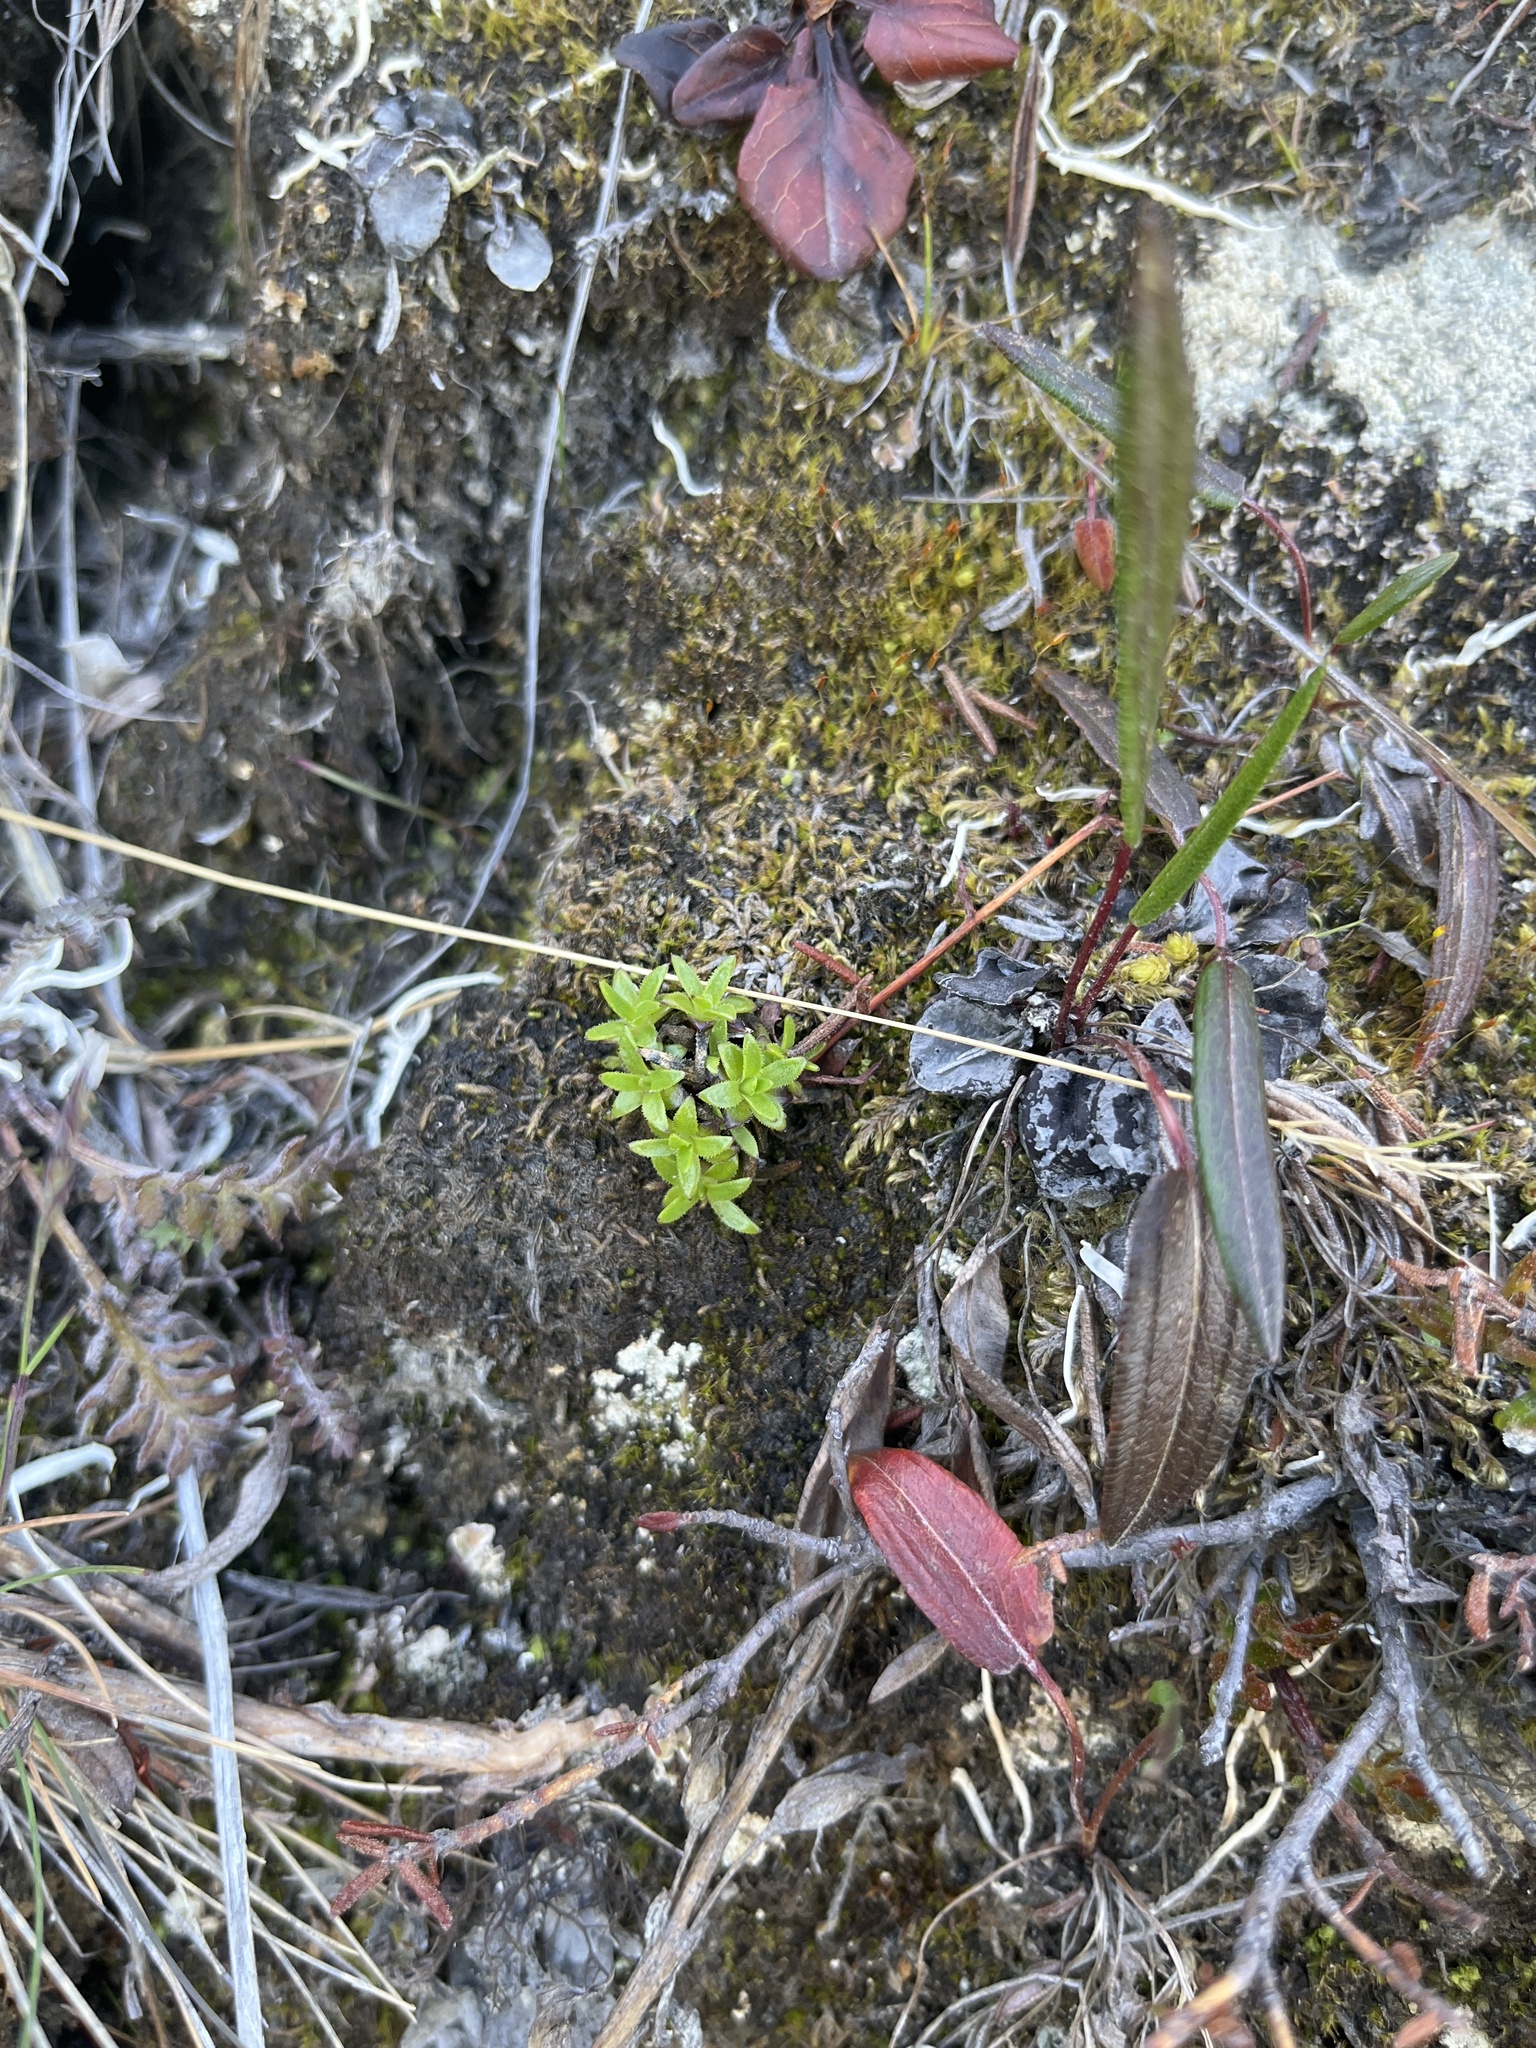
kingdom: Plantae
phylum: Tracheophyta
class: Magnoliopsida
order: Caryophyllales
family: Caryophyllaceae
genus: Silene
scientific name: Silene acaulis
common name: Moss campion
